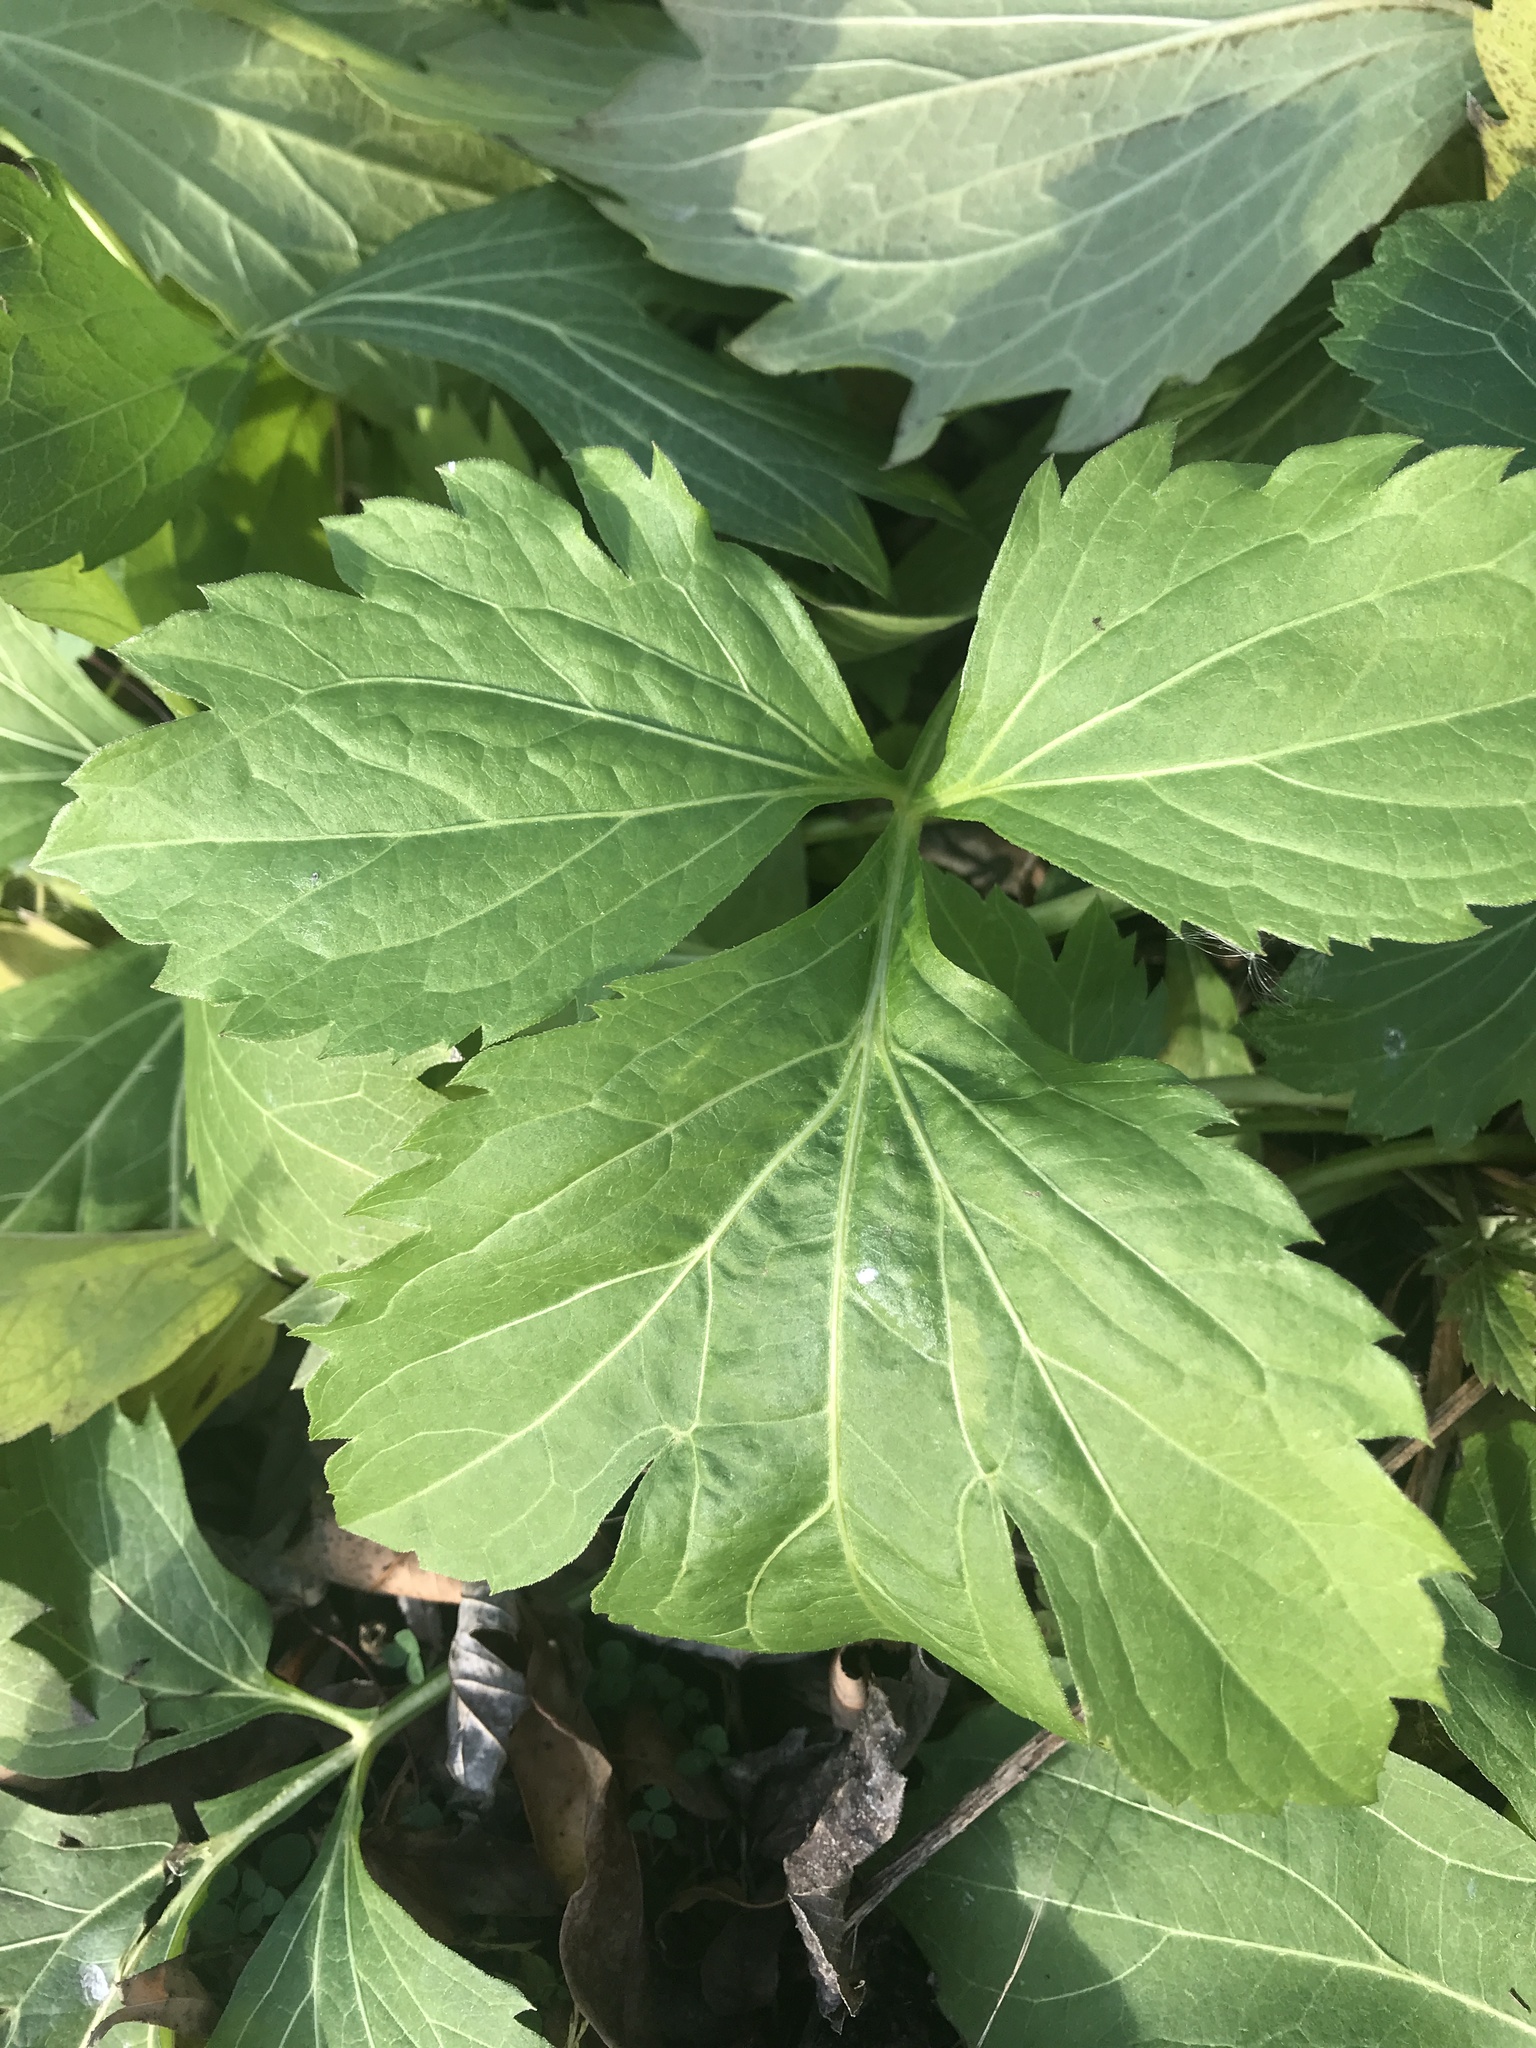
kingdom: Plantae
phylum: Tracheophyta
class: Magnoliopsida
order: Asterales
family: Asteraceae
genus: Rudbeckia
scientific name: Rudbeckia laciniata
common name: Coneflower
